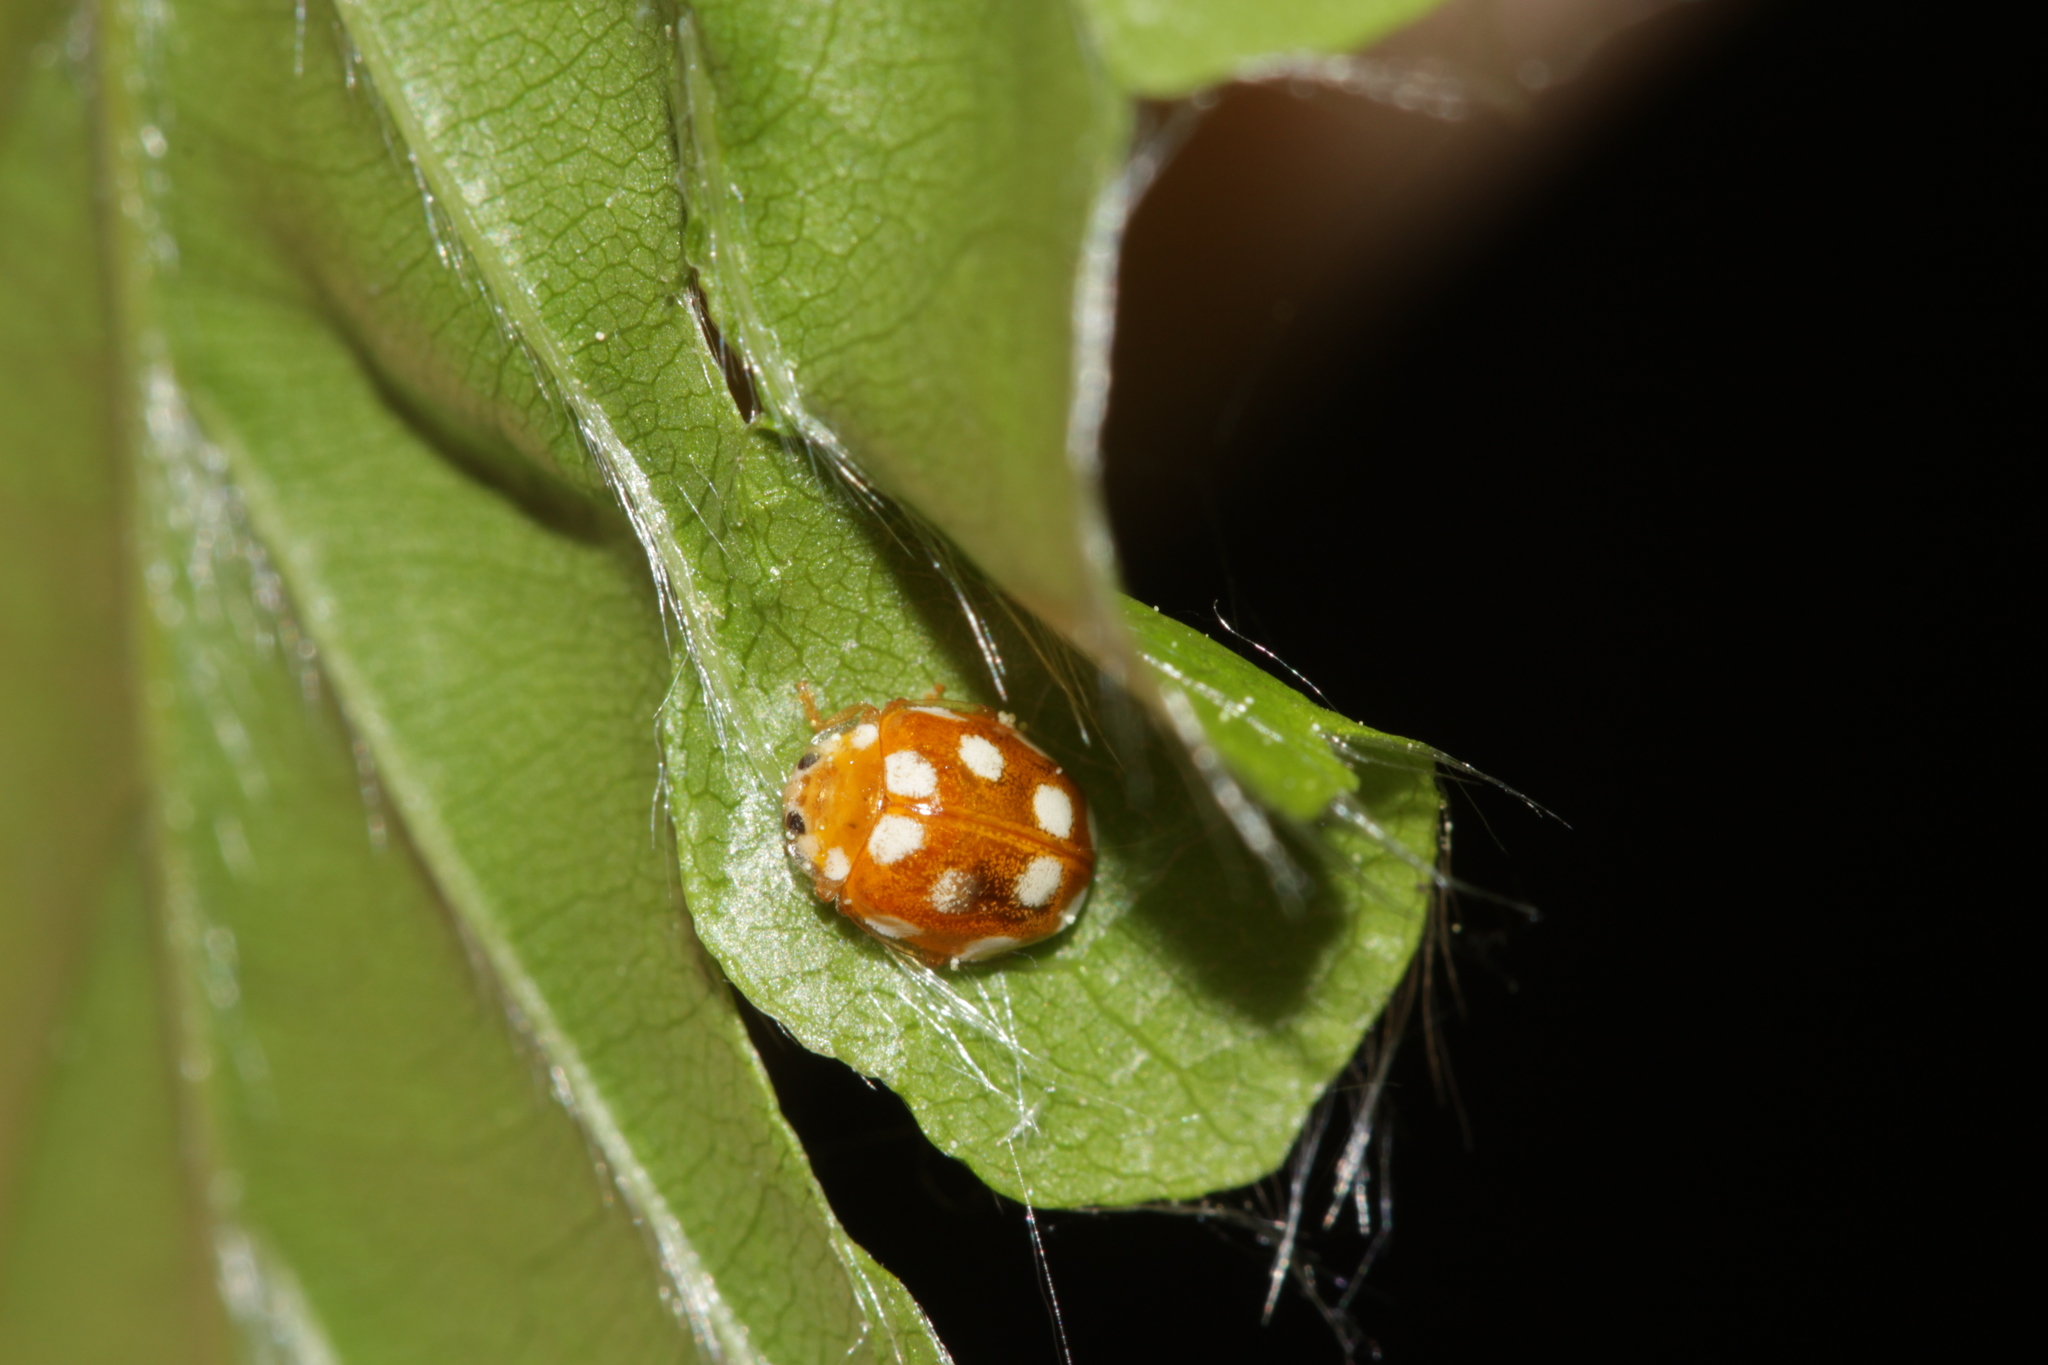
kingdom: Animalia
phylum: Arthropoda
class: Insecta
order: Coleoptera
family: Coccinellidae
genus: Vibidia
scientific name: Vibidia duodecimguttata
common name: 12-spot ladybird
